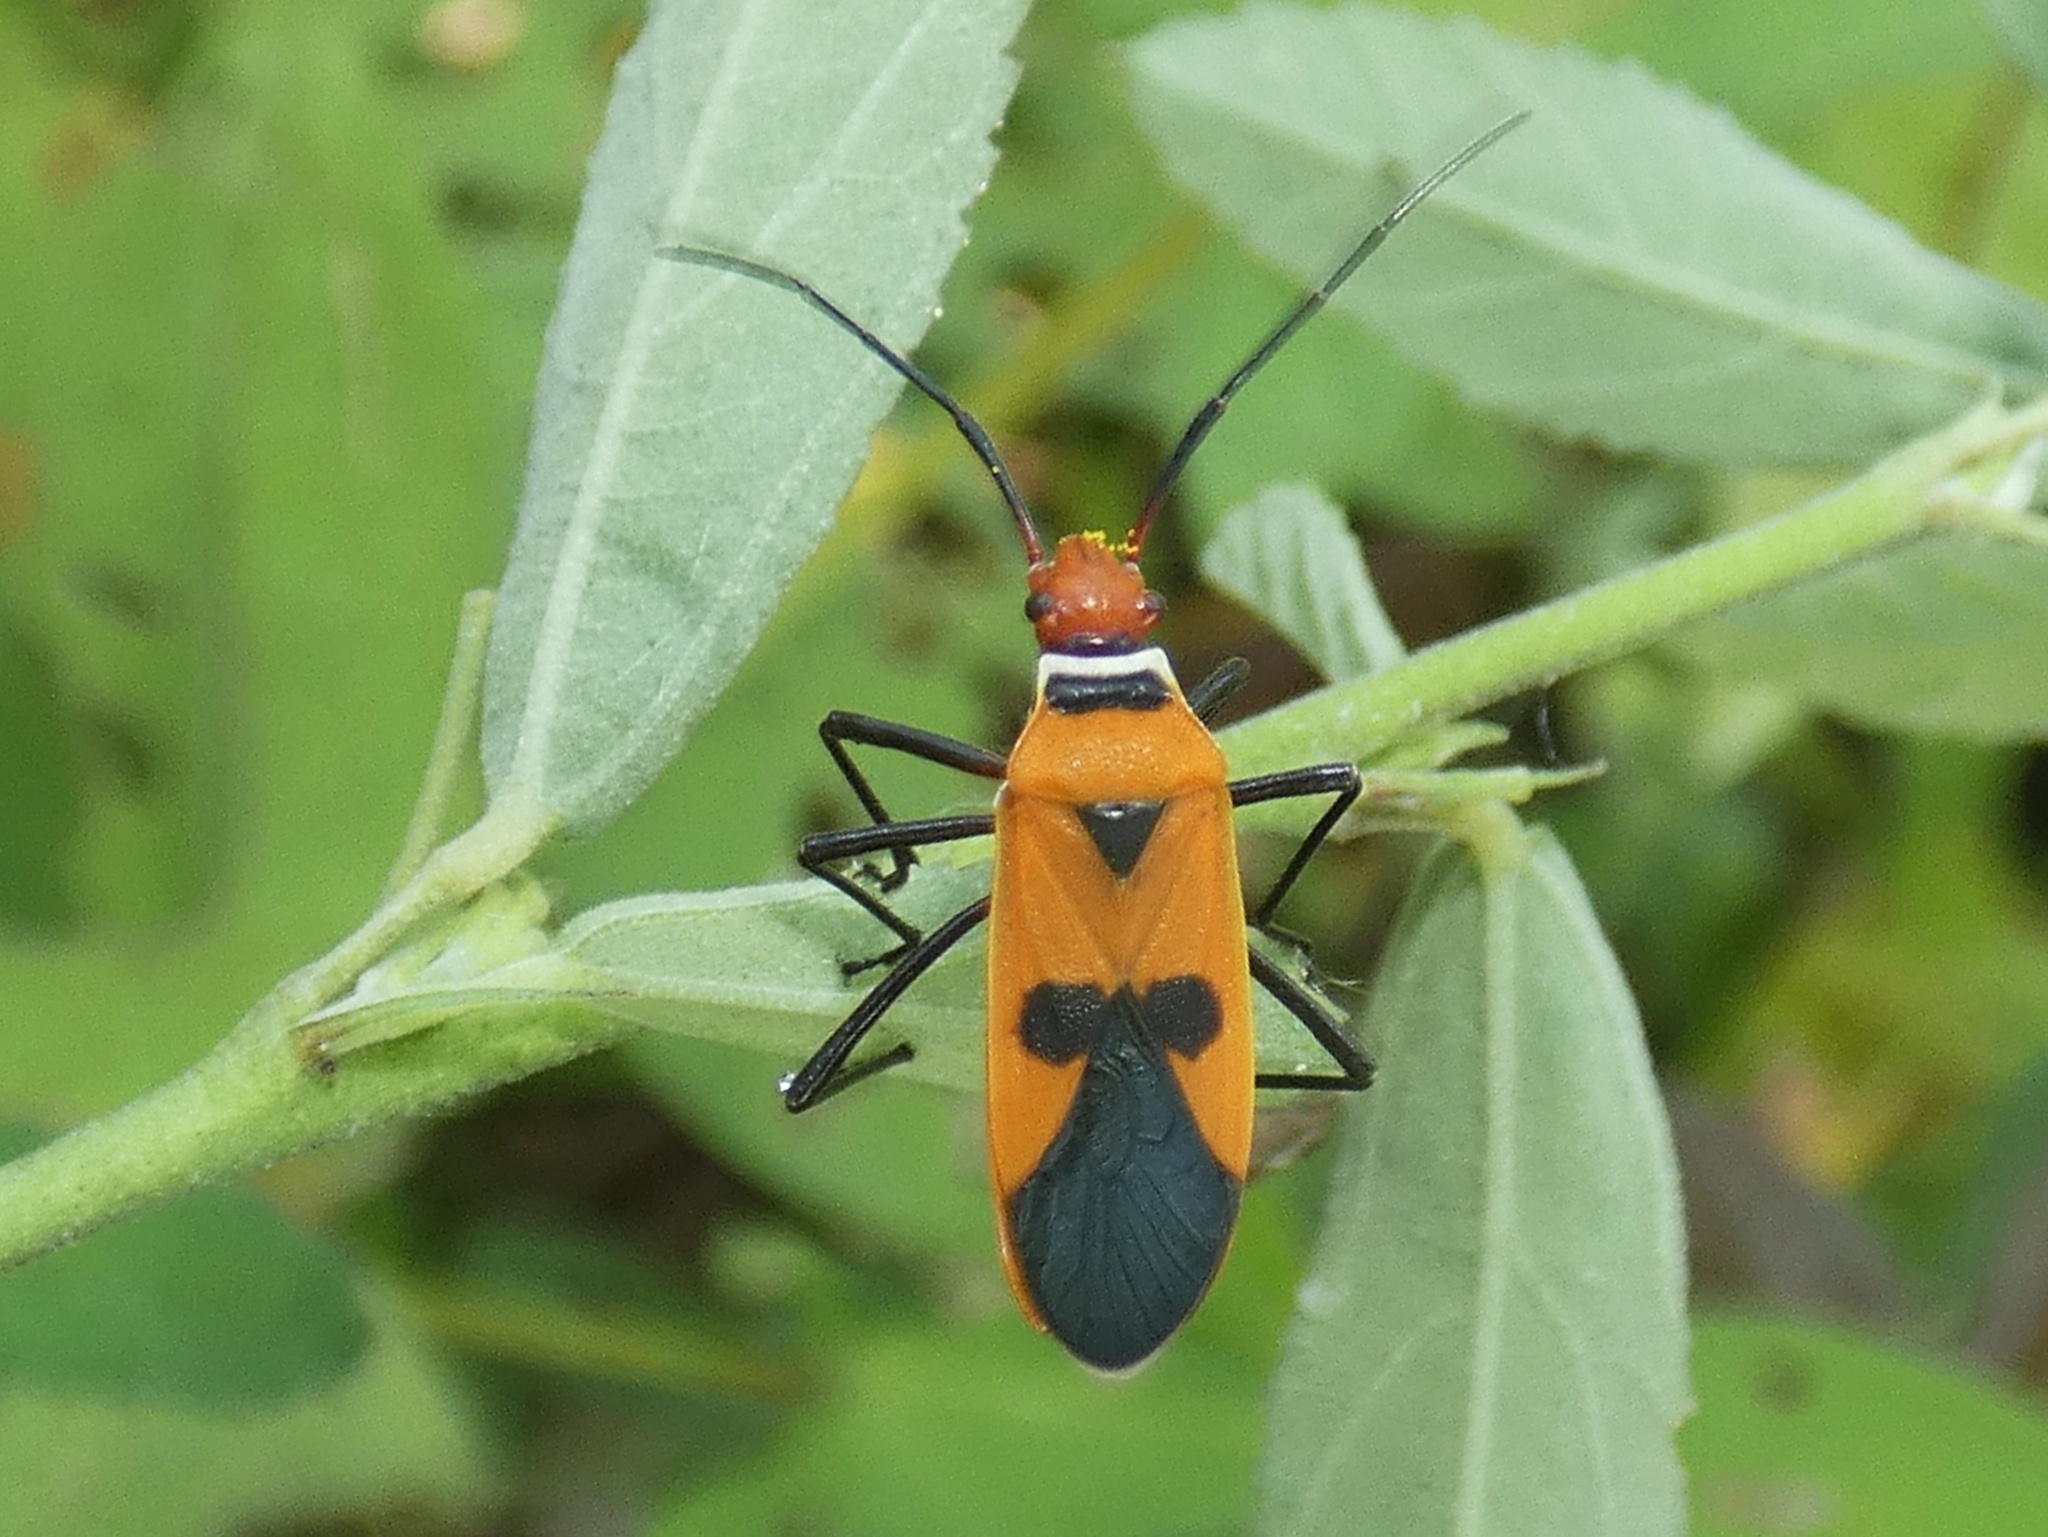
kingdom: Animalia
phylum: Arthropoda
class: Insecta
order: Hemiptera
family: Pyrrhocoridae
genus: Dysdercus
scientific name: Dysdercus poecilus
